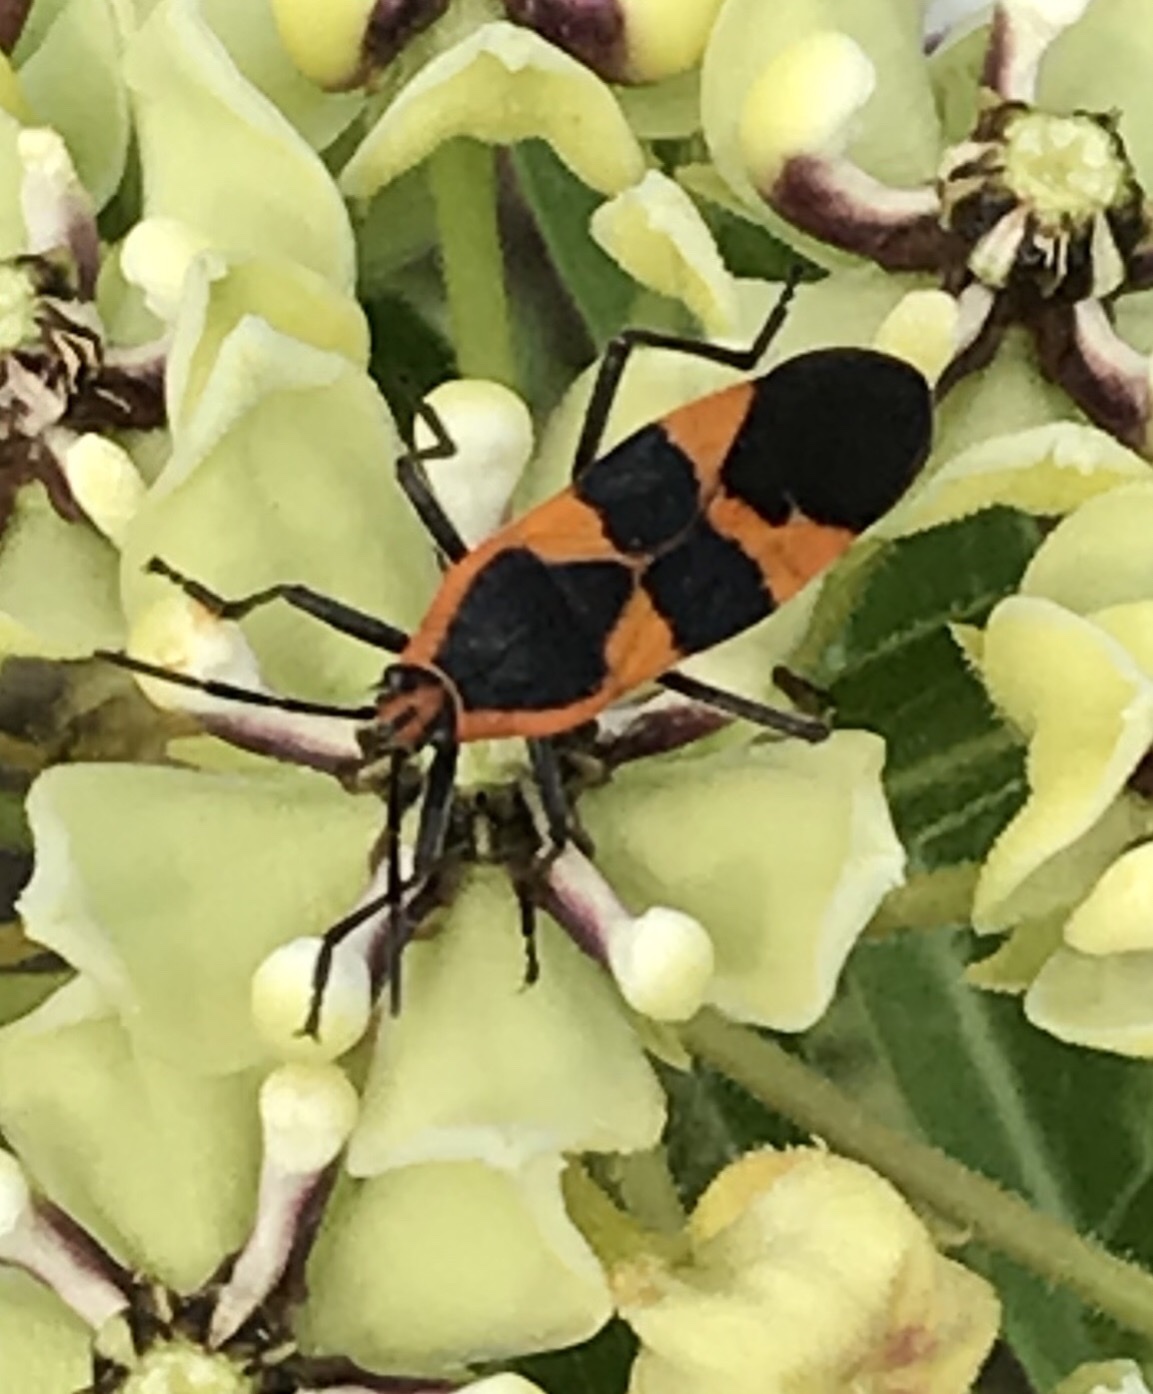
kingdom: Animalia
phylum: Arthropoda
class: Insecta
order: Hemiptera
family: Lygaeidae
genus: Oncopeltus
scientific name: Oncopeltus fasciatus
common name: Large milkweed bug
